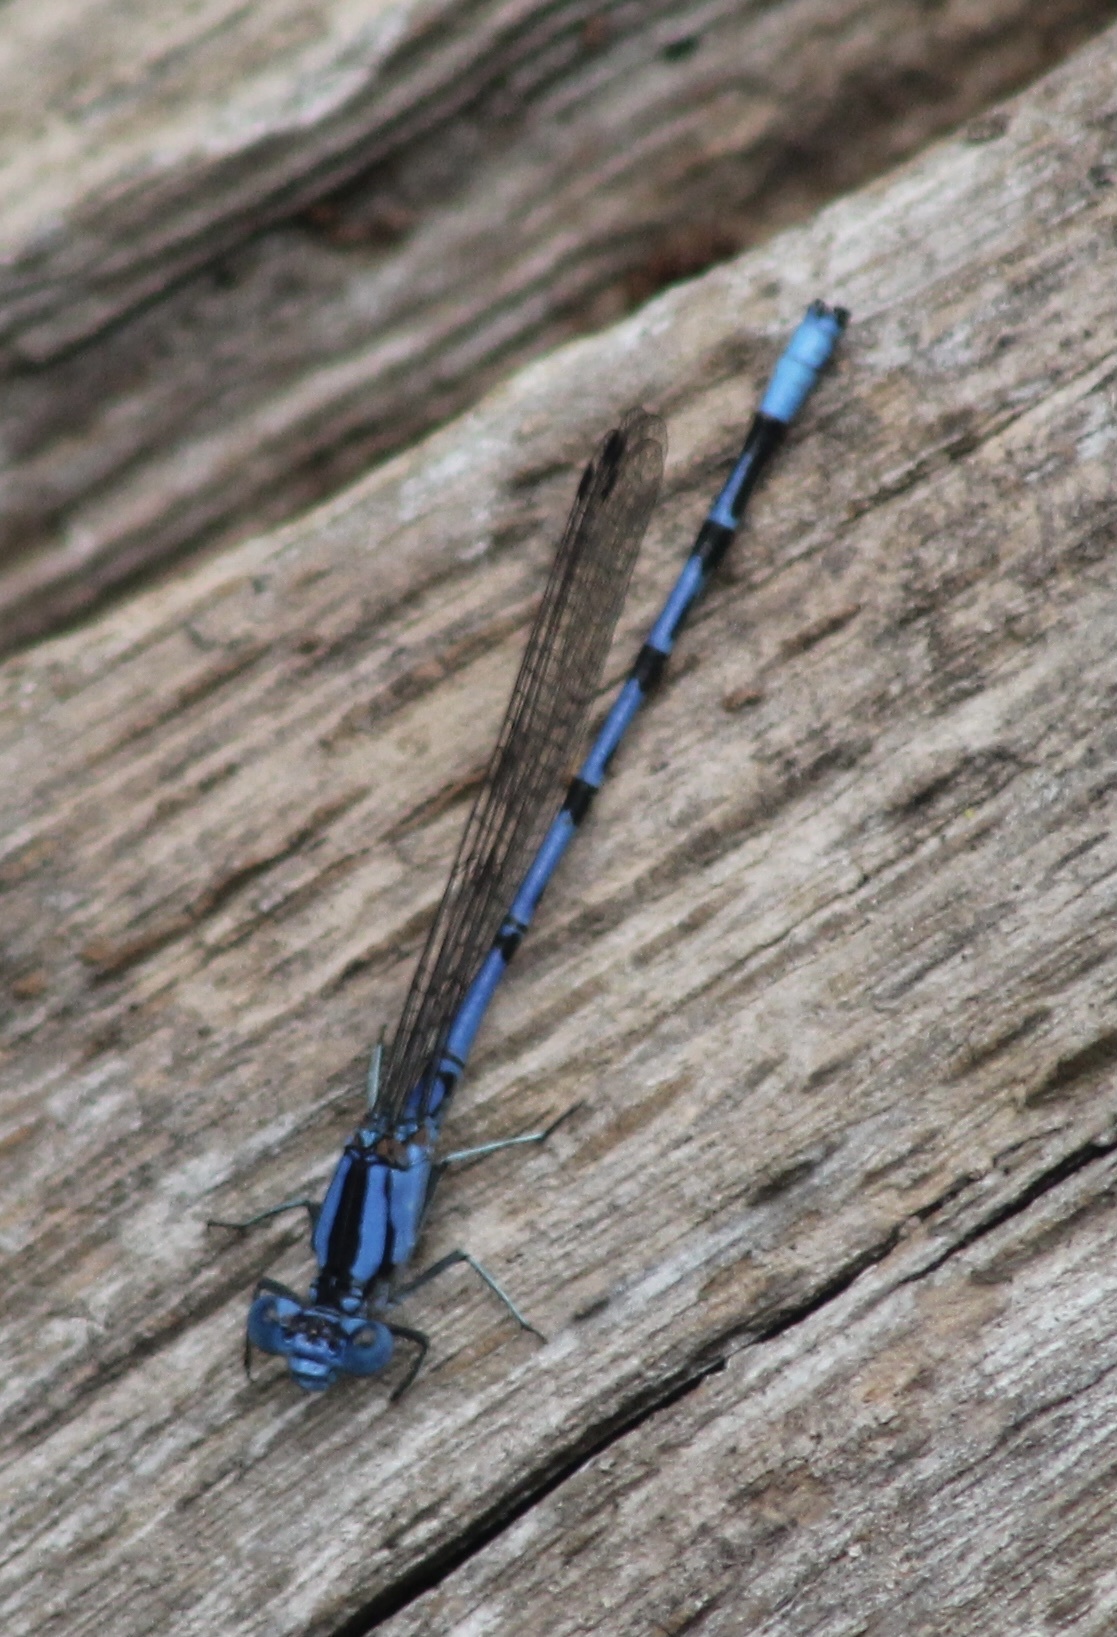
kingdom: Animalia
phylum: Arthropoda
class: Insecta
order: Odonata
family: Coenagrionidae
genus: Argia
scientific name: Argia funebris
